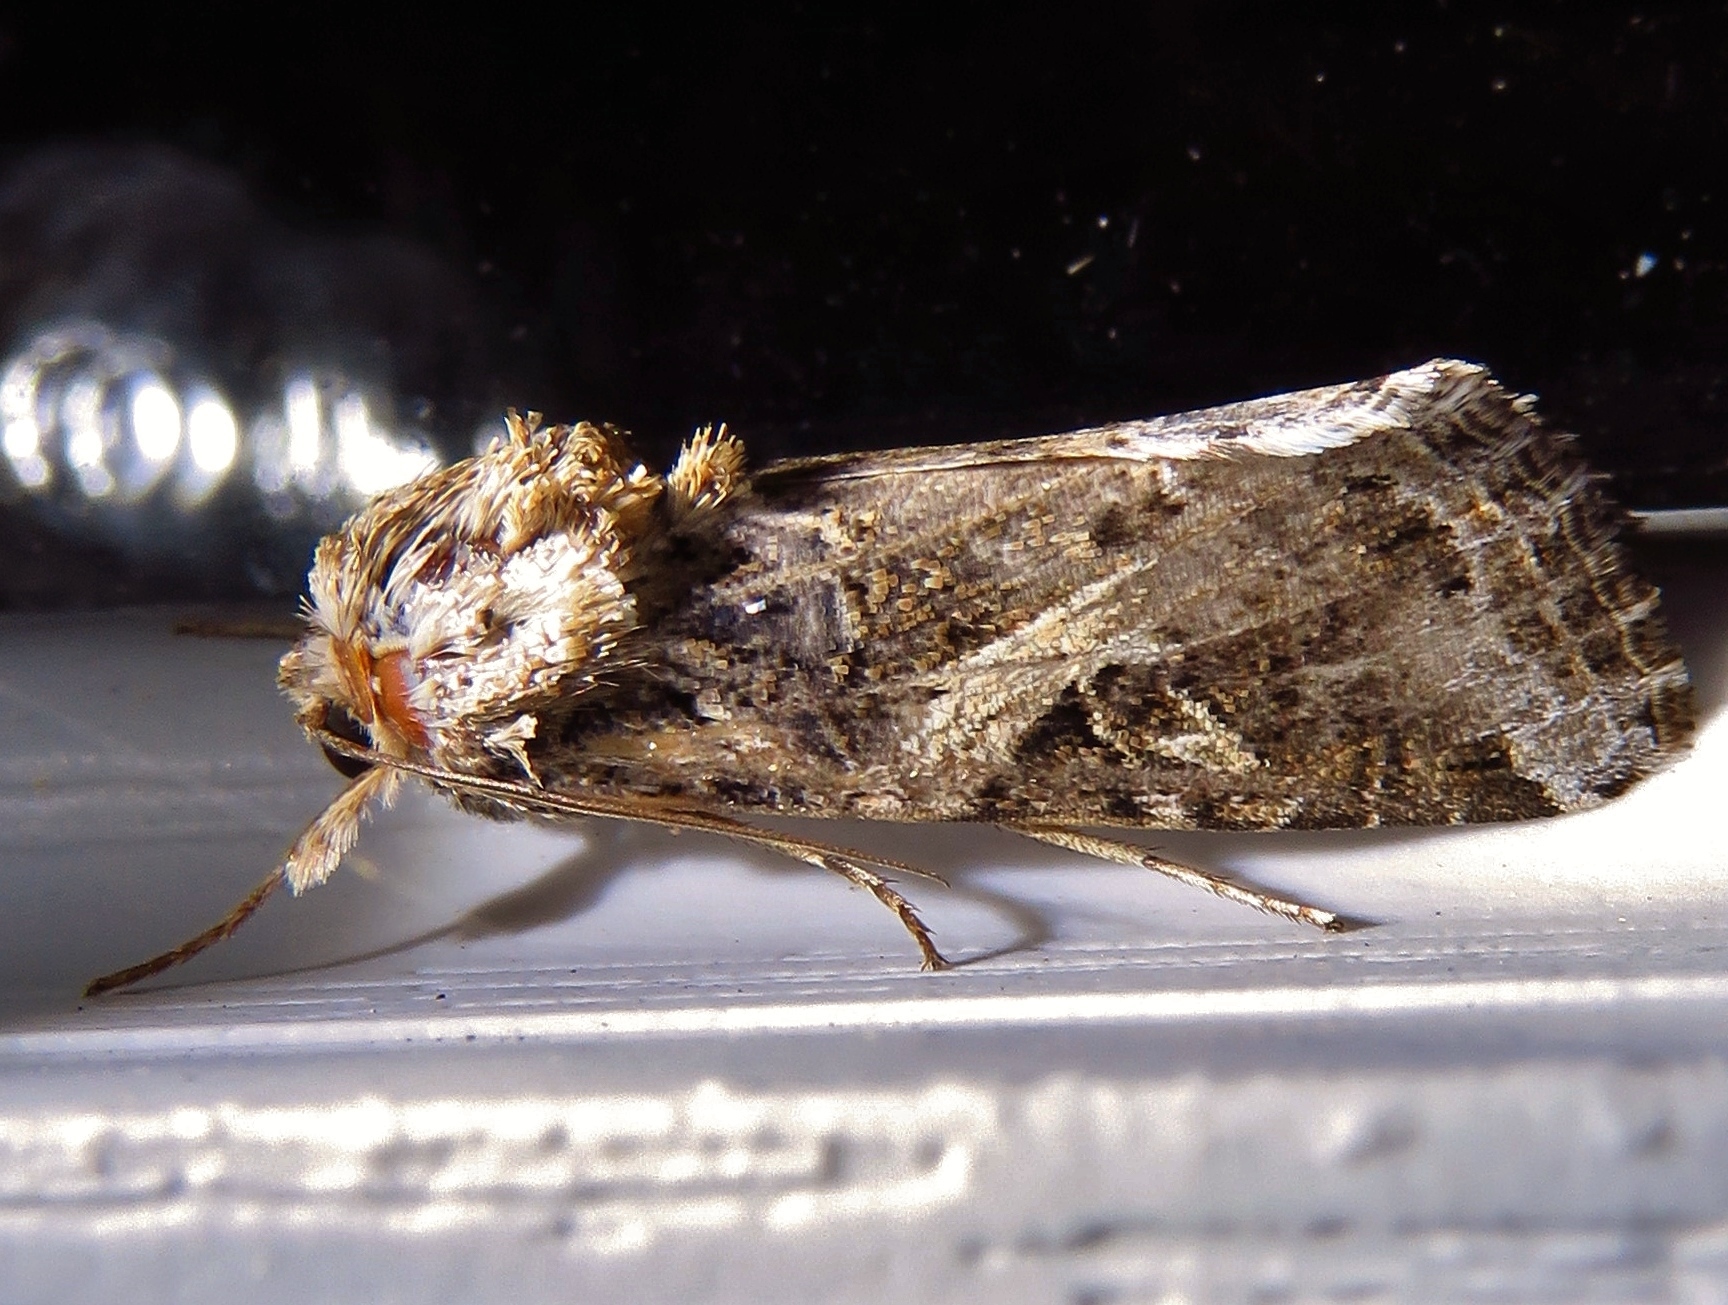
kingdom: Animalia
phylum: Arthropoda
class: Insecta
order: Lepidoptera
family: Noctuidae
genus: Spodoptera
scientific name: Spodoptera ornithogalli
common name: Yellow-striped armyworm
